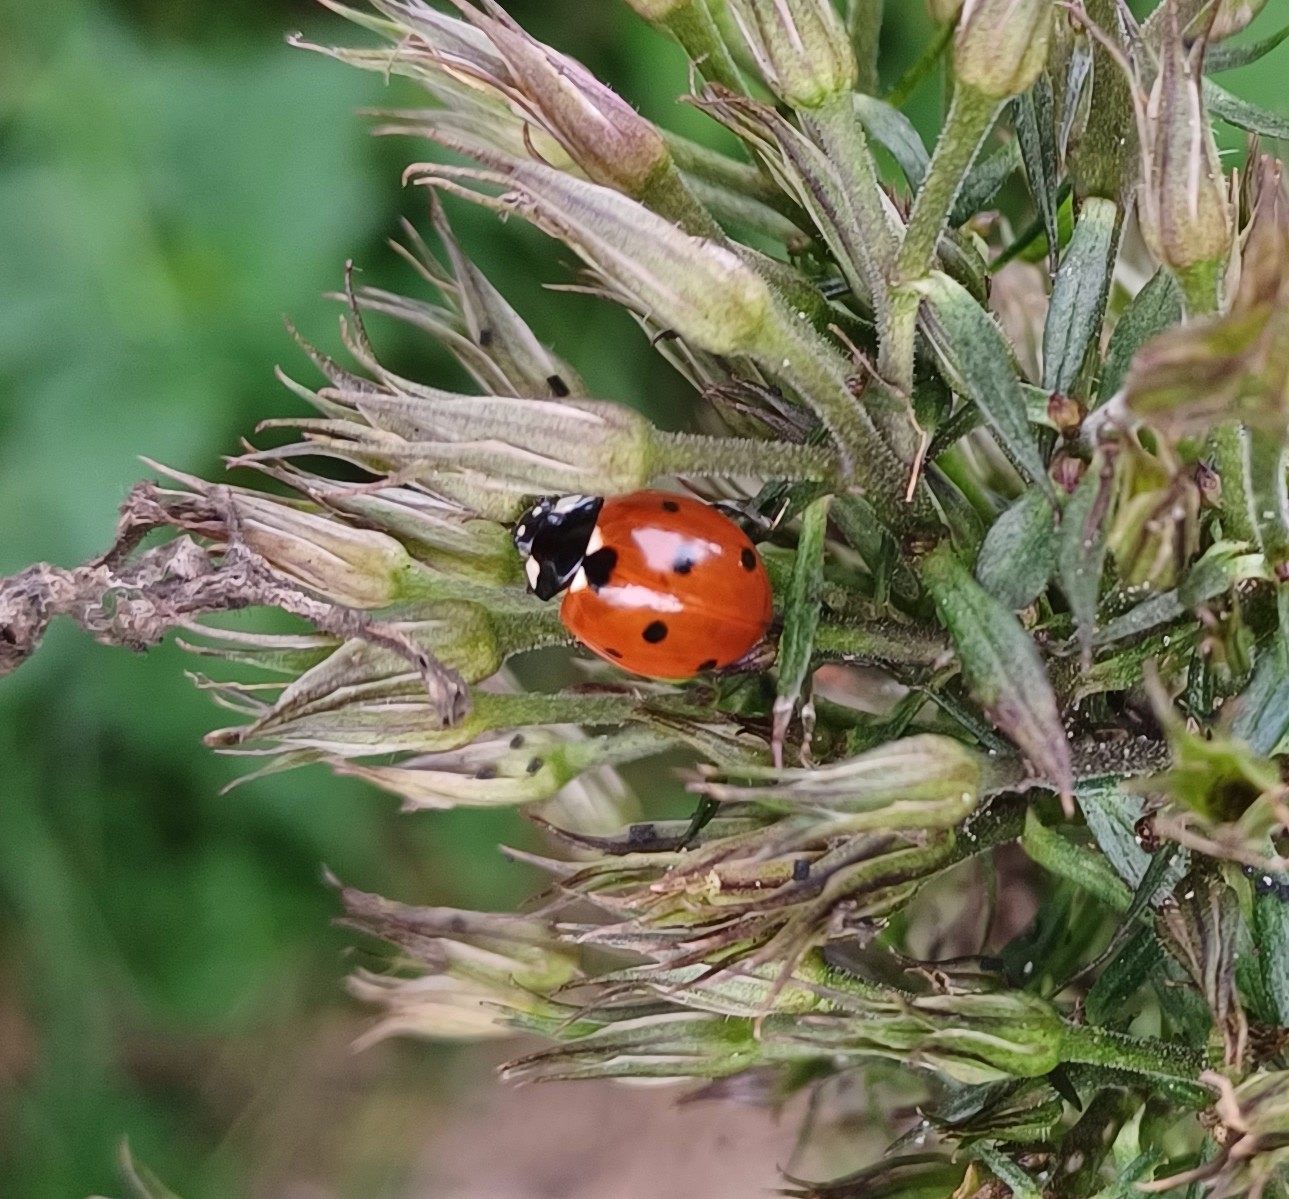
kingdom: Animalia
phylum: Arthropoda
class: Insecta
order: Coleoptera
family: Coccinellidae
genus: Coccinella
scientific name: Coccinella septempunctata
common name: Sevenspotted lady beetle
